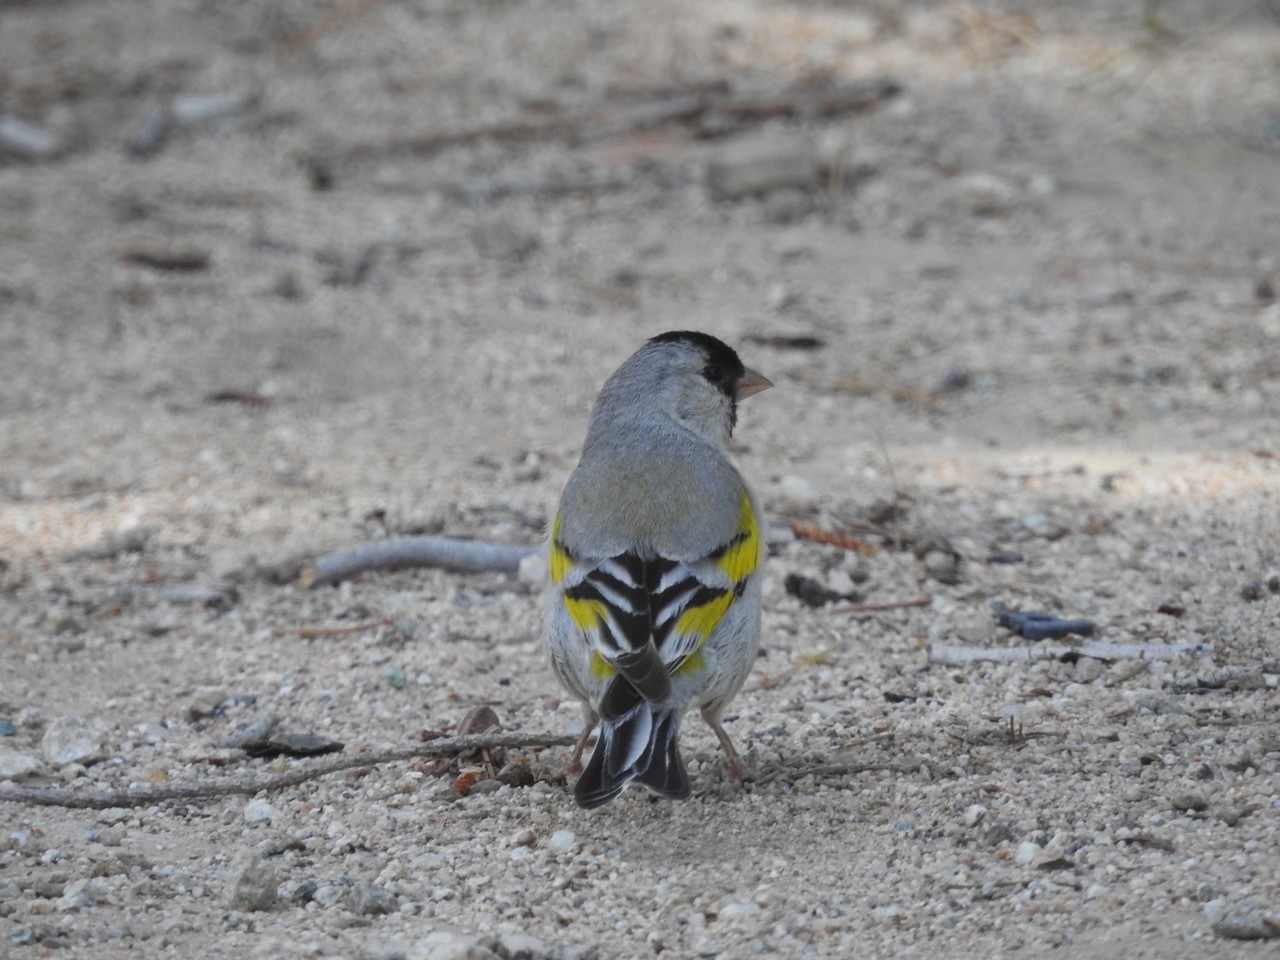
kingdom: Animalia
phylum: Chordata
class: Aves
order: Passeriformes
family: Fringillidae
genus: Spinus
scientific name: Spinus lawrencei
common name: Lawrence's goldfinch
